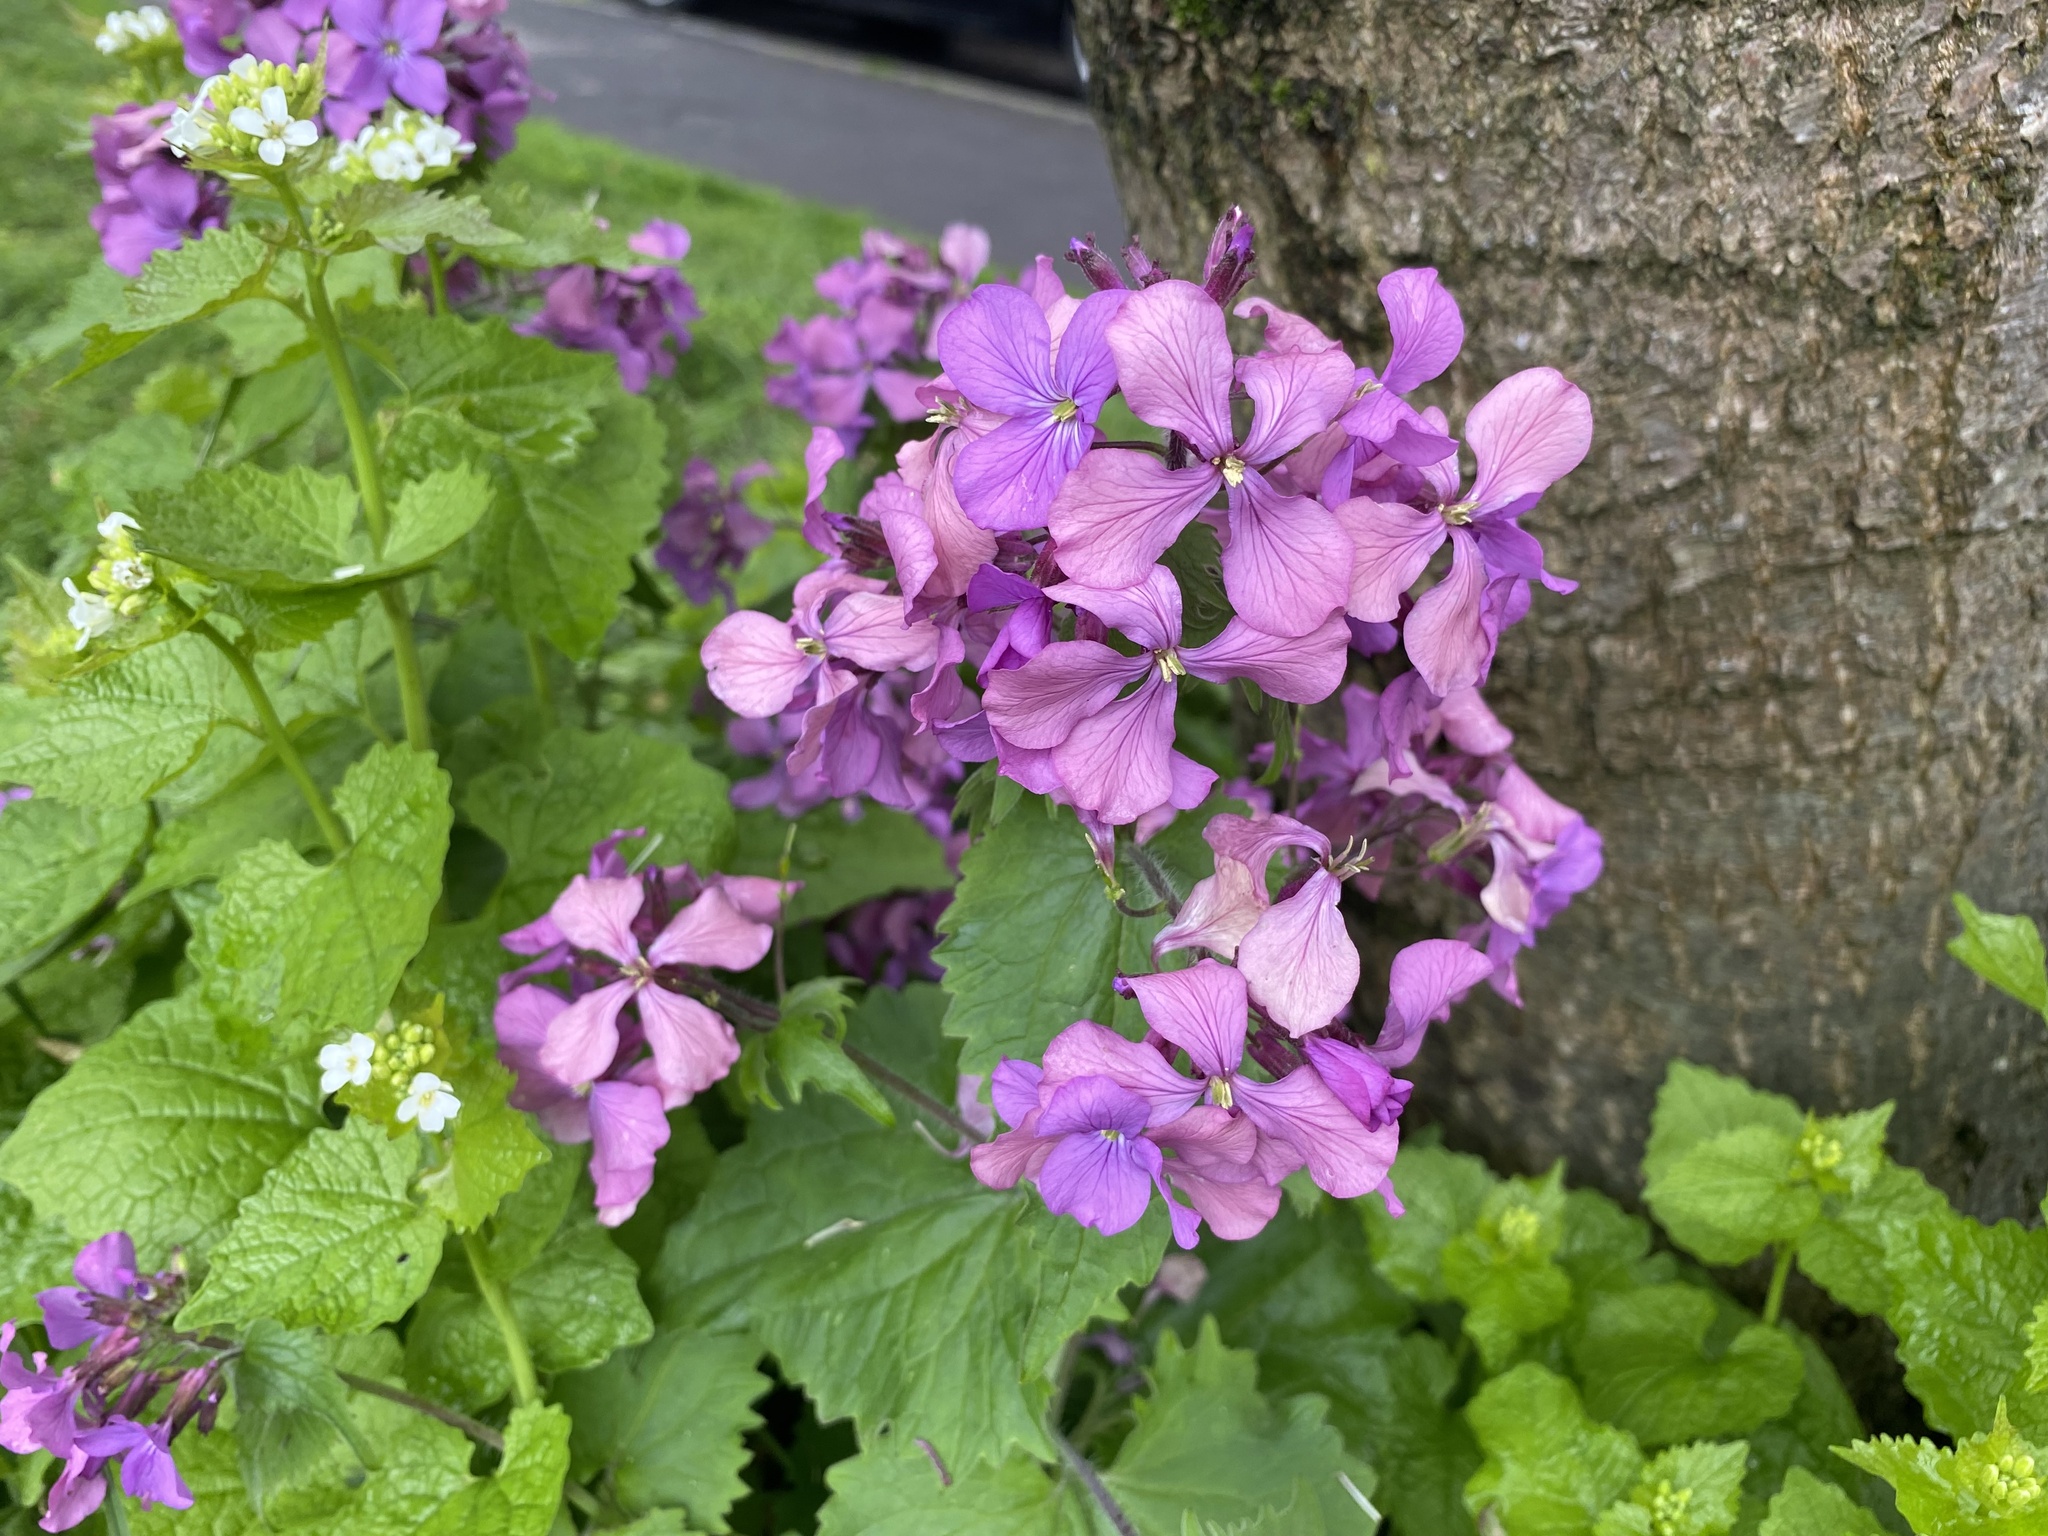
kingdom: Plantae
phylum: Tracheophyta
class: Magnoliopsida
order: Brassicales
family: Brassicaceae
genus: Lunaria
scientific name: Lunaria annua
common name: Honesty
